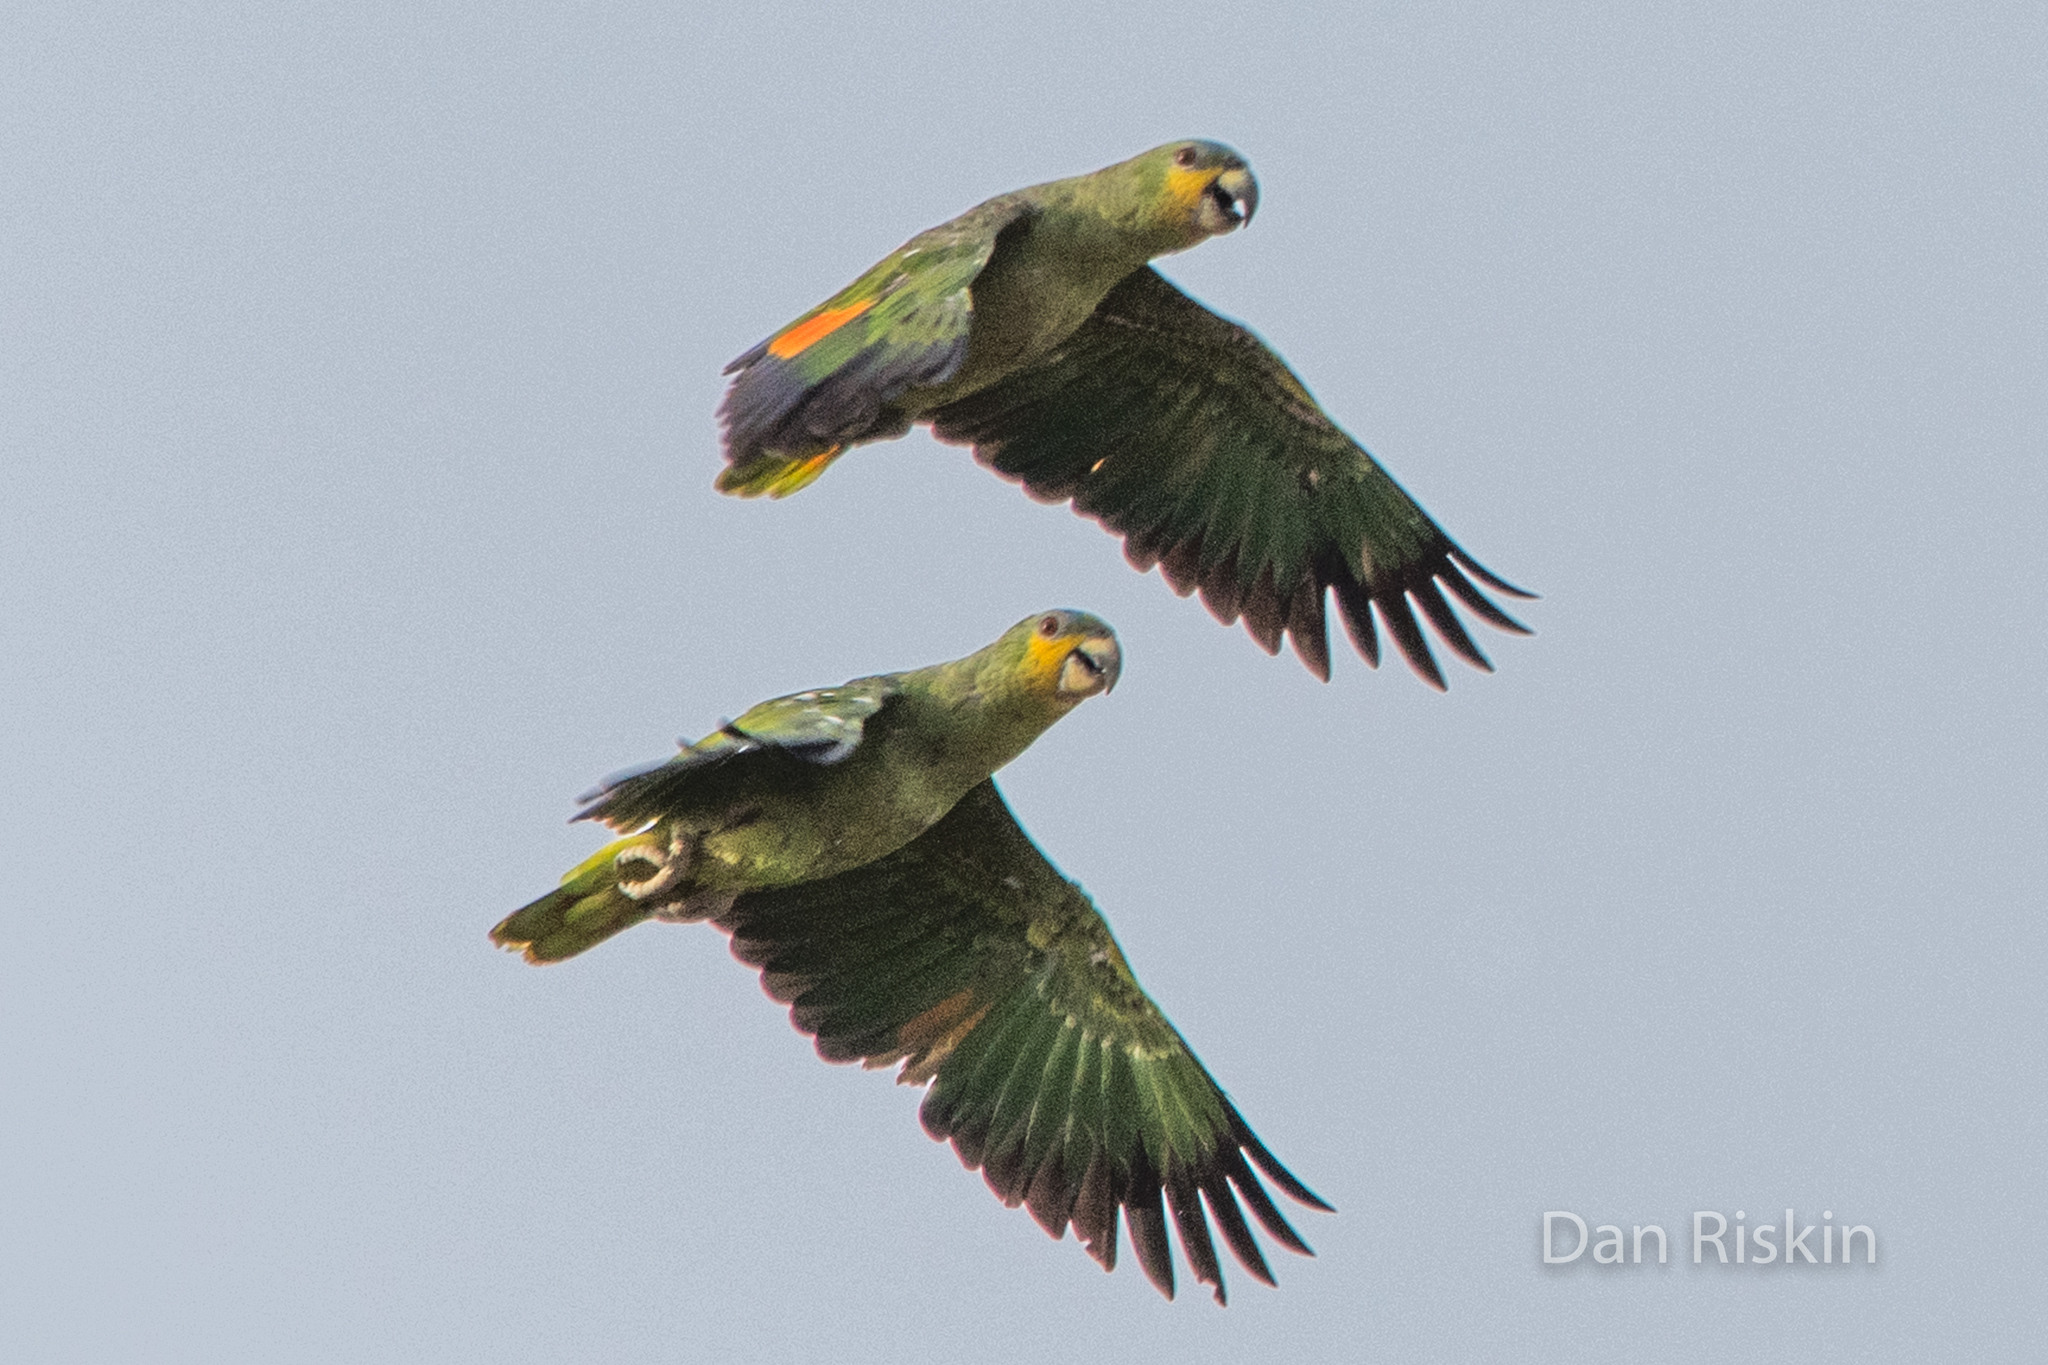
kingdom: Animalia
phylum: Chordata
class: Aves
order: Psittaciformes
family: Psittacidae
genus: Amazona
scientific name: Amazona amazonica
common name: Orange-winged amazon
